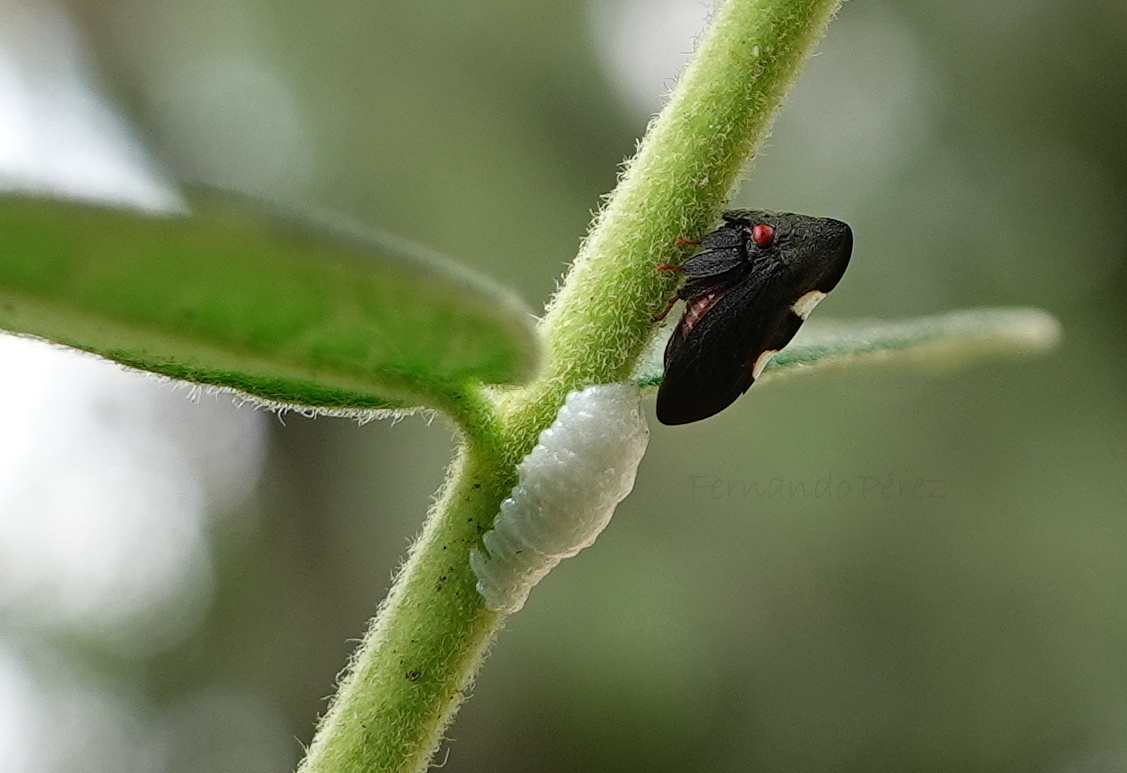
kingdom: Animalia
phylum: Arthropoda
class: Insecta
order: Hemiptera
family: Membracidae
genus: Enchenopa
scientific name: Enchenopa quadricolor
